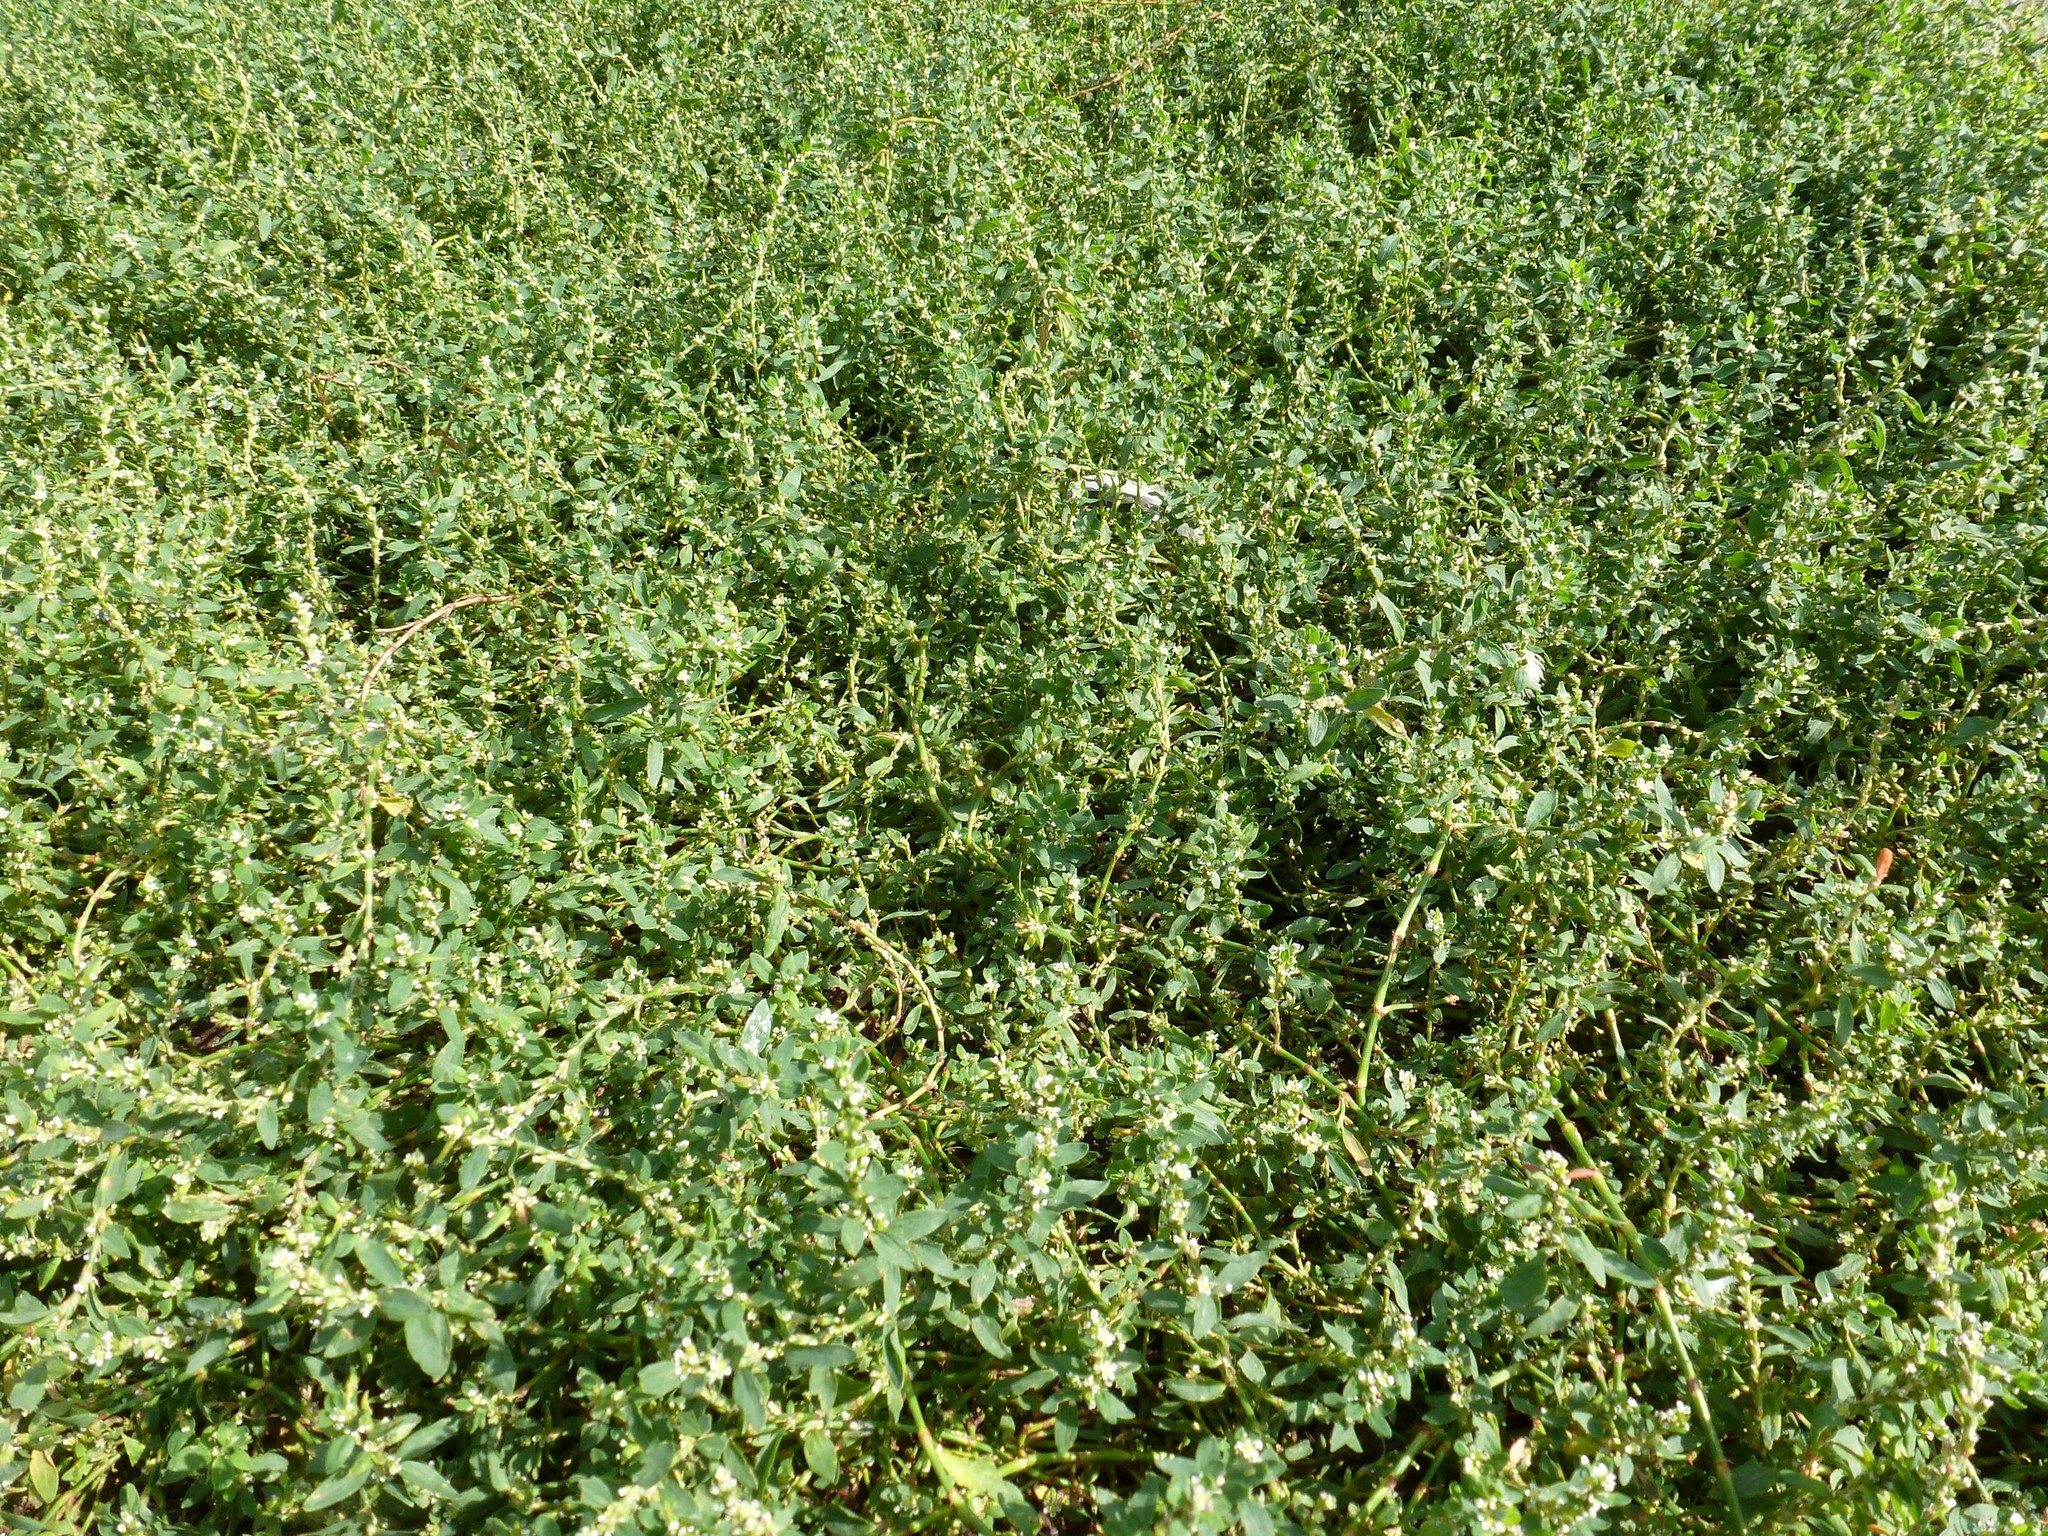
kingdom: Plantae
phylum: Tracheophyta
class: Magnoliopsida
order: Caryophyllales
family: Polygonaceae
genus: Polygonum
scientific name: Polygonum
